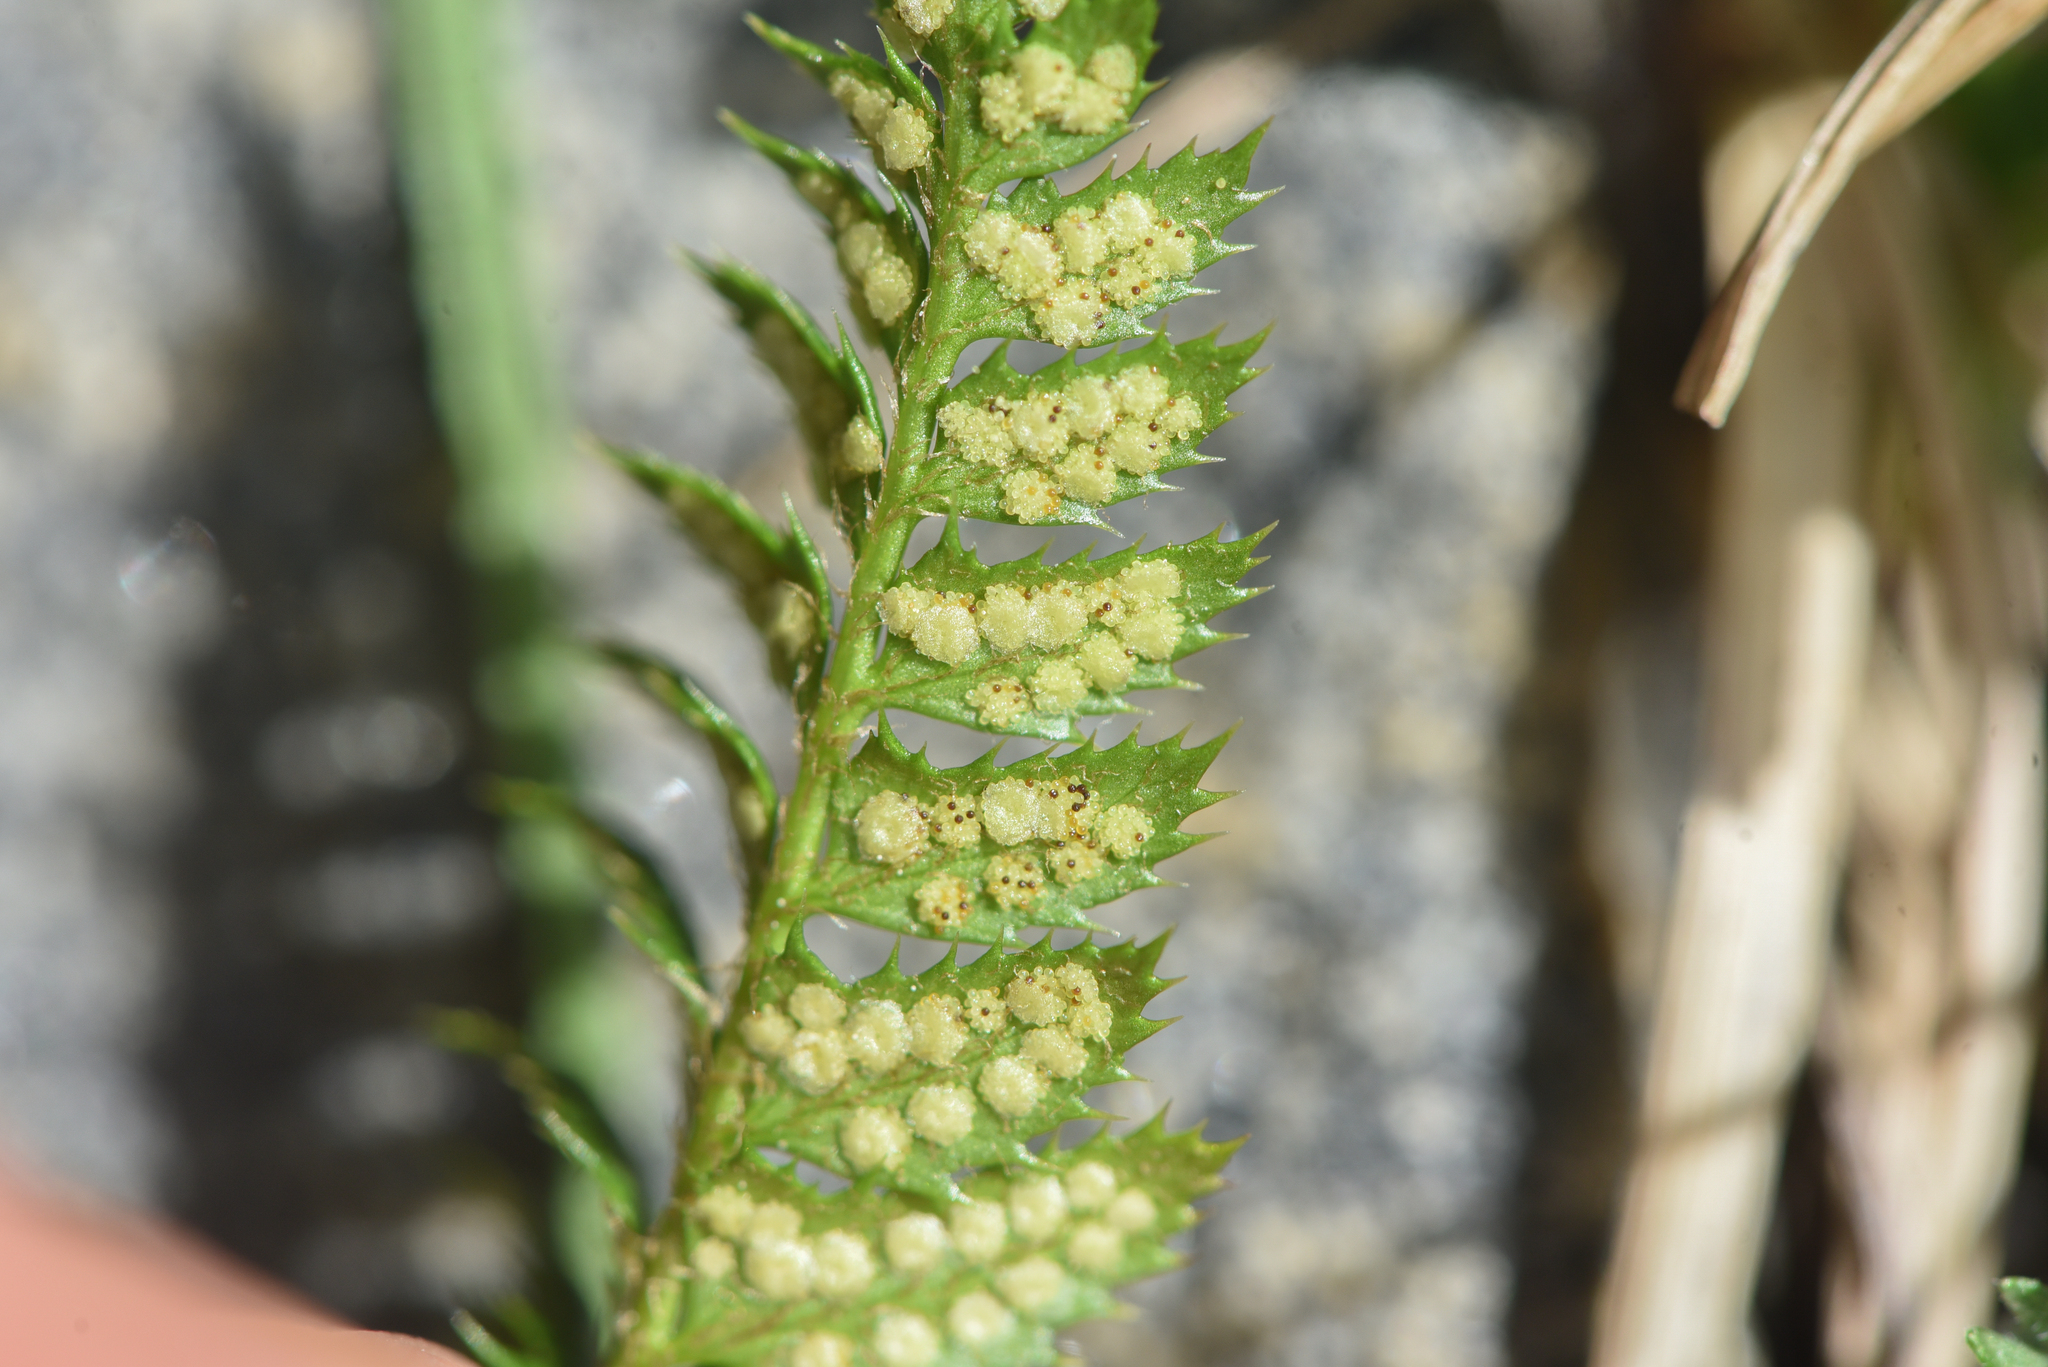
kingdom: Plantae
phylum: Tracheophyta
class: Polypodiopsida
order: Polypodiales
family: Dryopteridaceae
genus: Polystichum
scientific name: Polystichum lonchitis
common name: Holly fern
